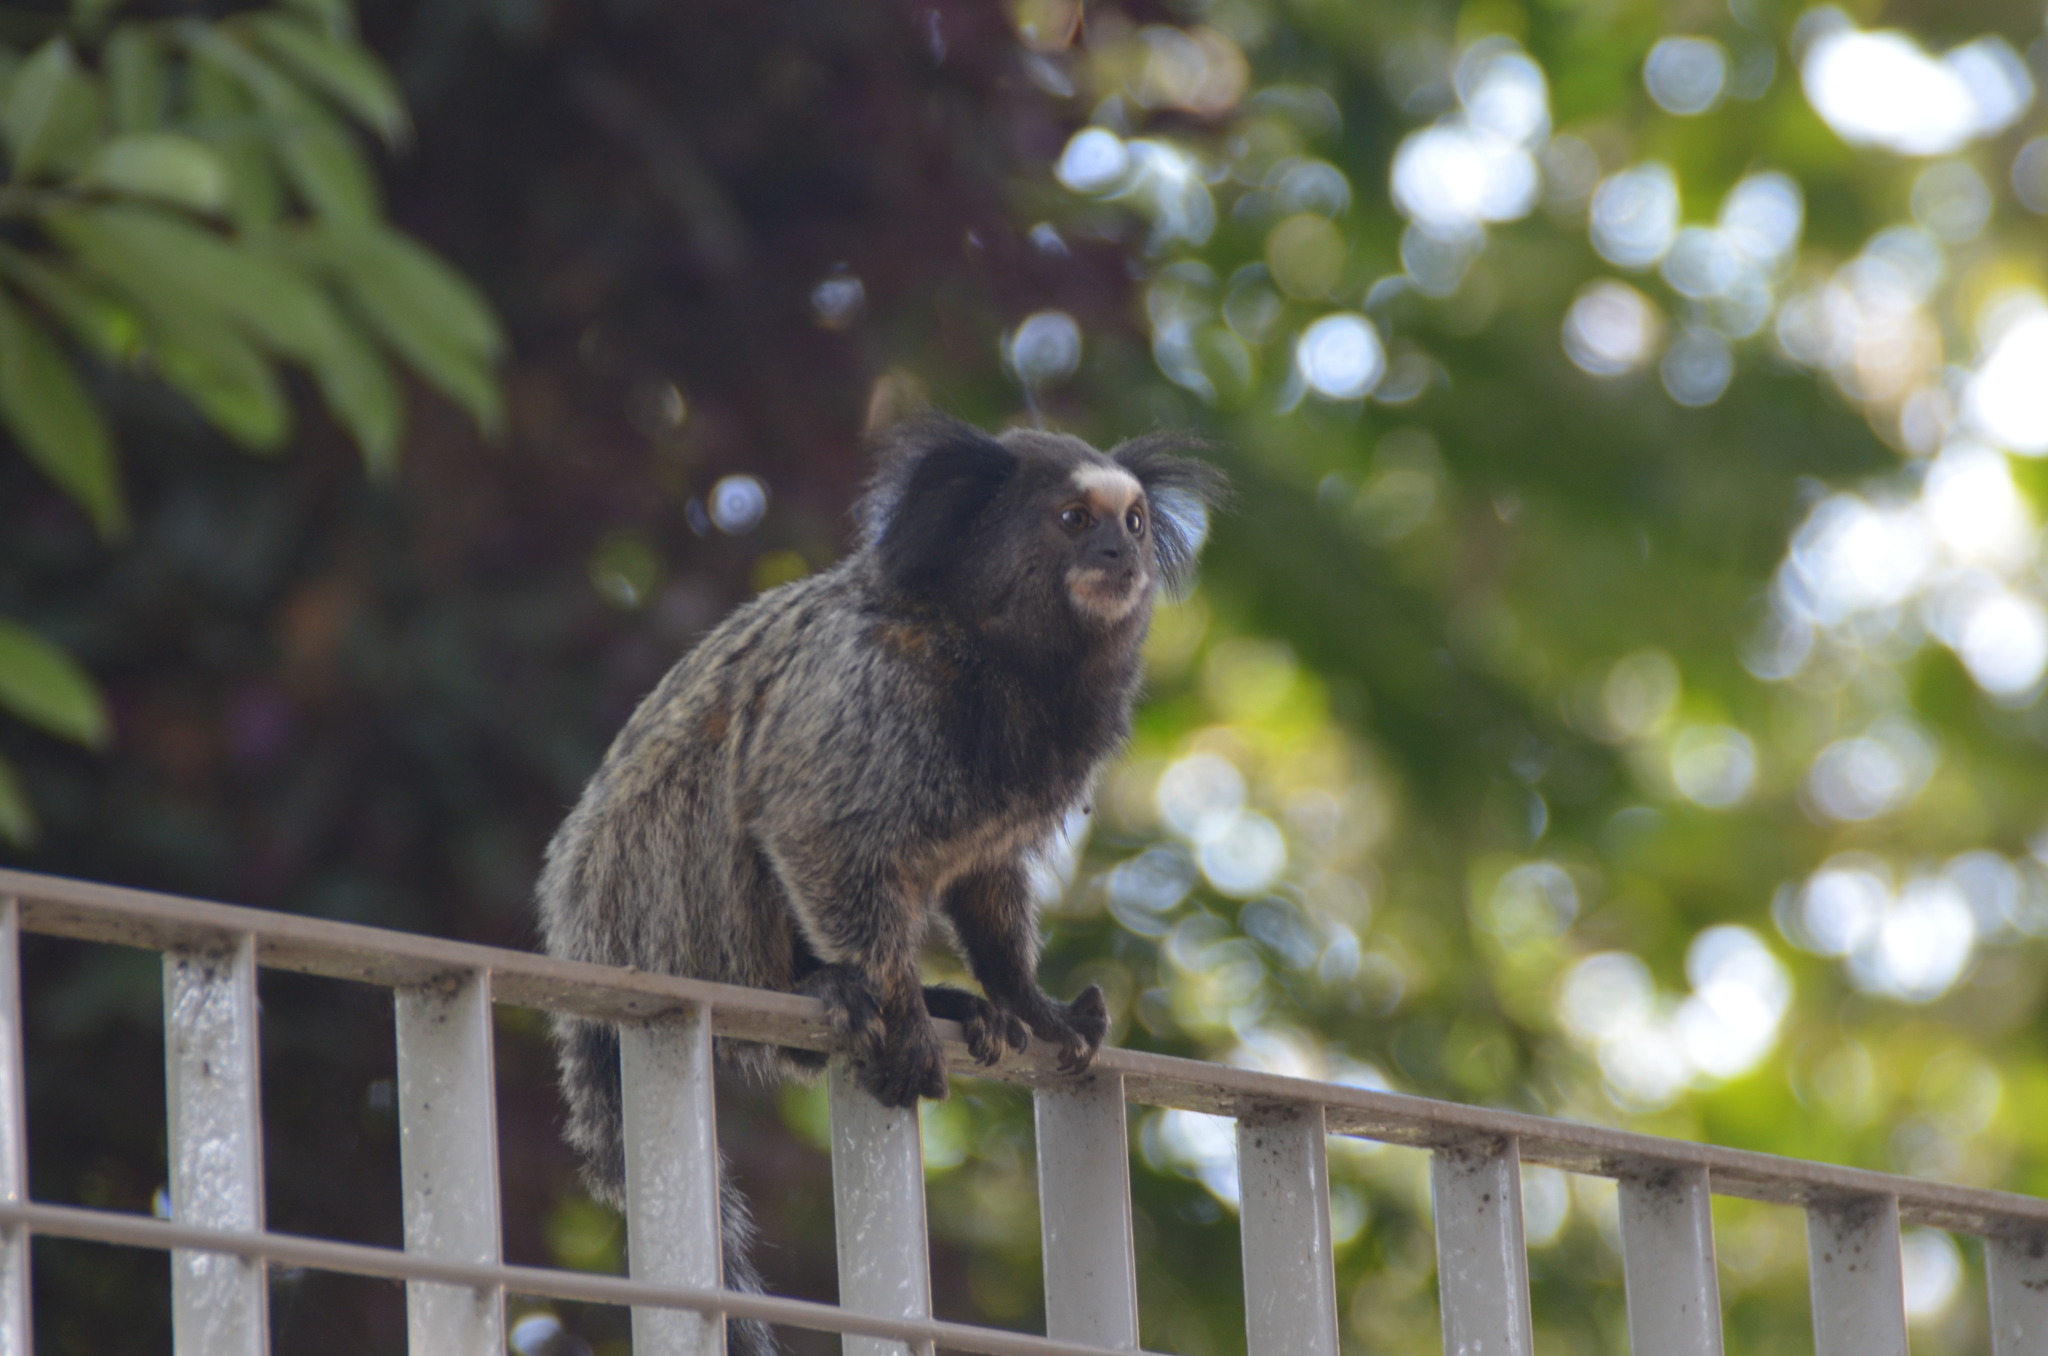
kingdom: Animalia
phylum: Chordata
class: Mammalia
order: Primates
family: Callitrichidae
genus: Callithrix
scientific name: Callithrix penicillata
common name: Black-tufted marmoset
